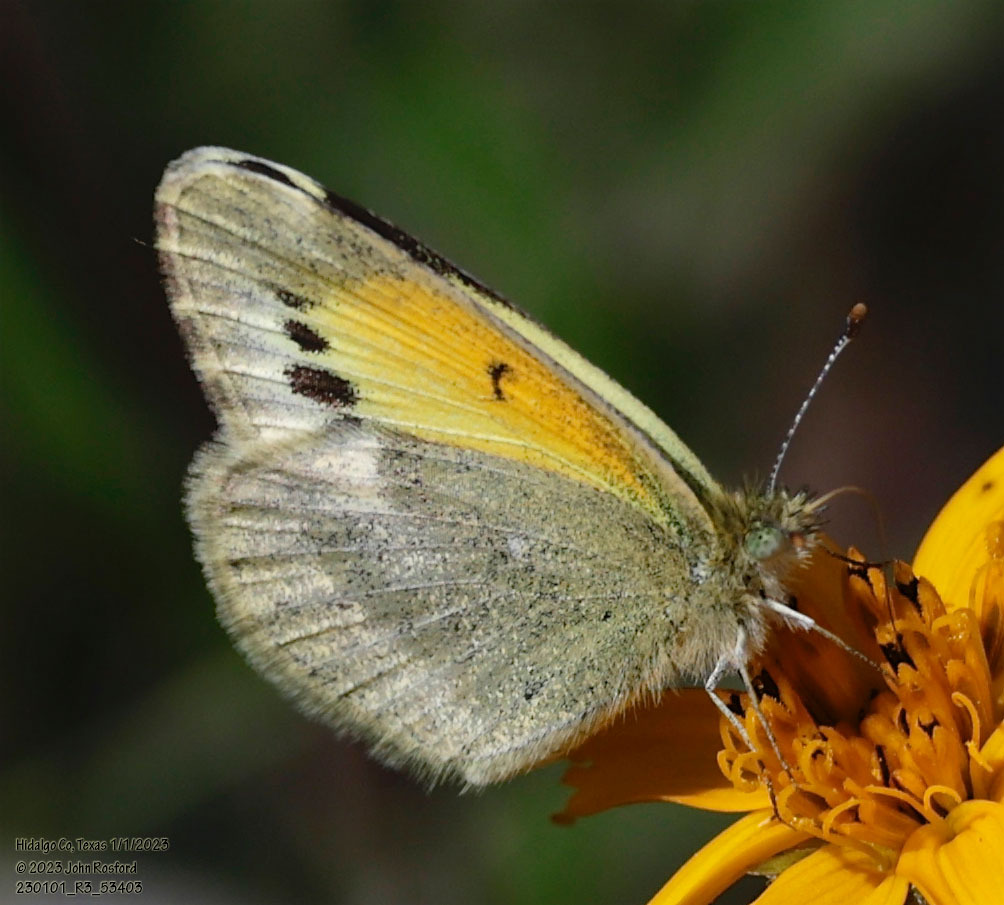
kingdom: Animalia
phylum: Arthropoda
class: Insecta
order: Lepidoptera
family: Pieridae
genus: Nathalis
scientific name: Nathalis iole
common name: Dainty sulphur
